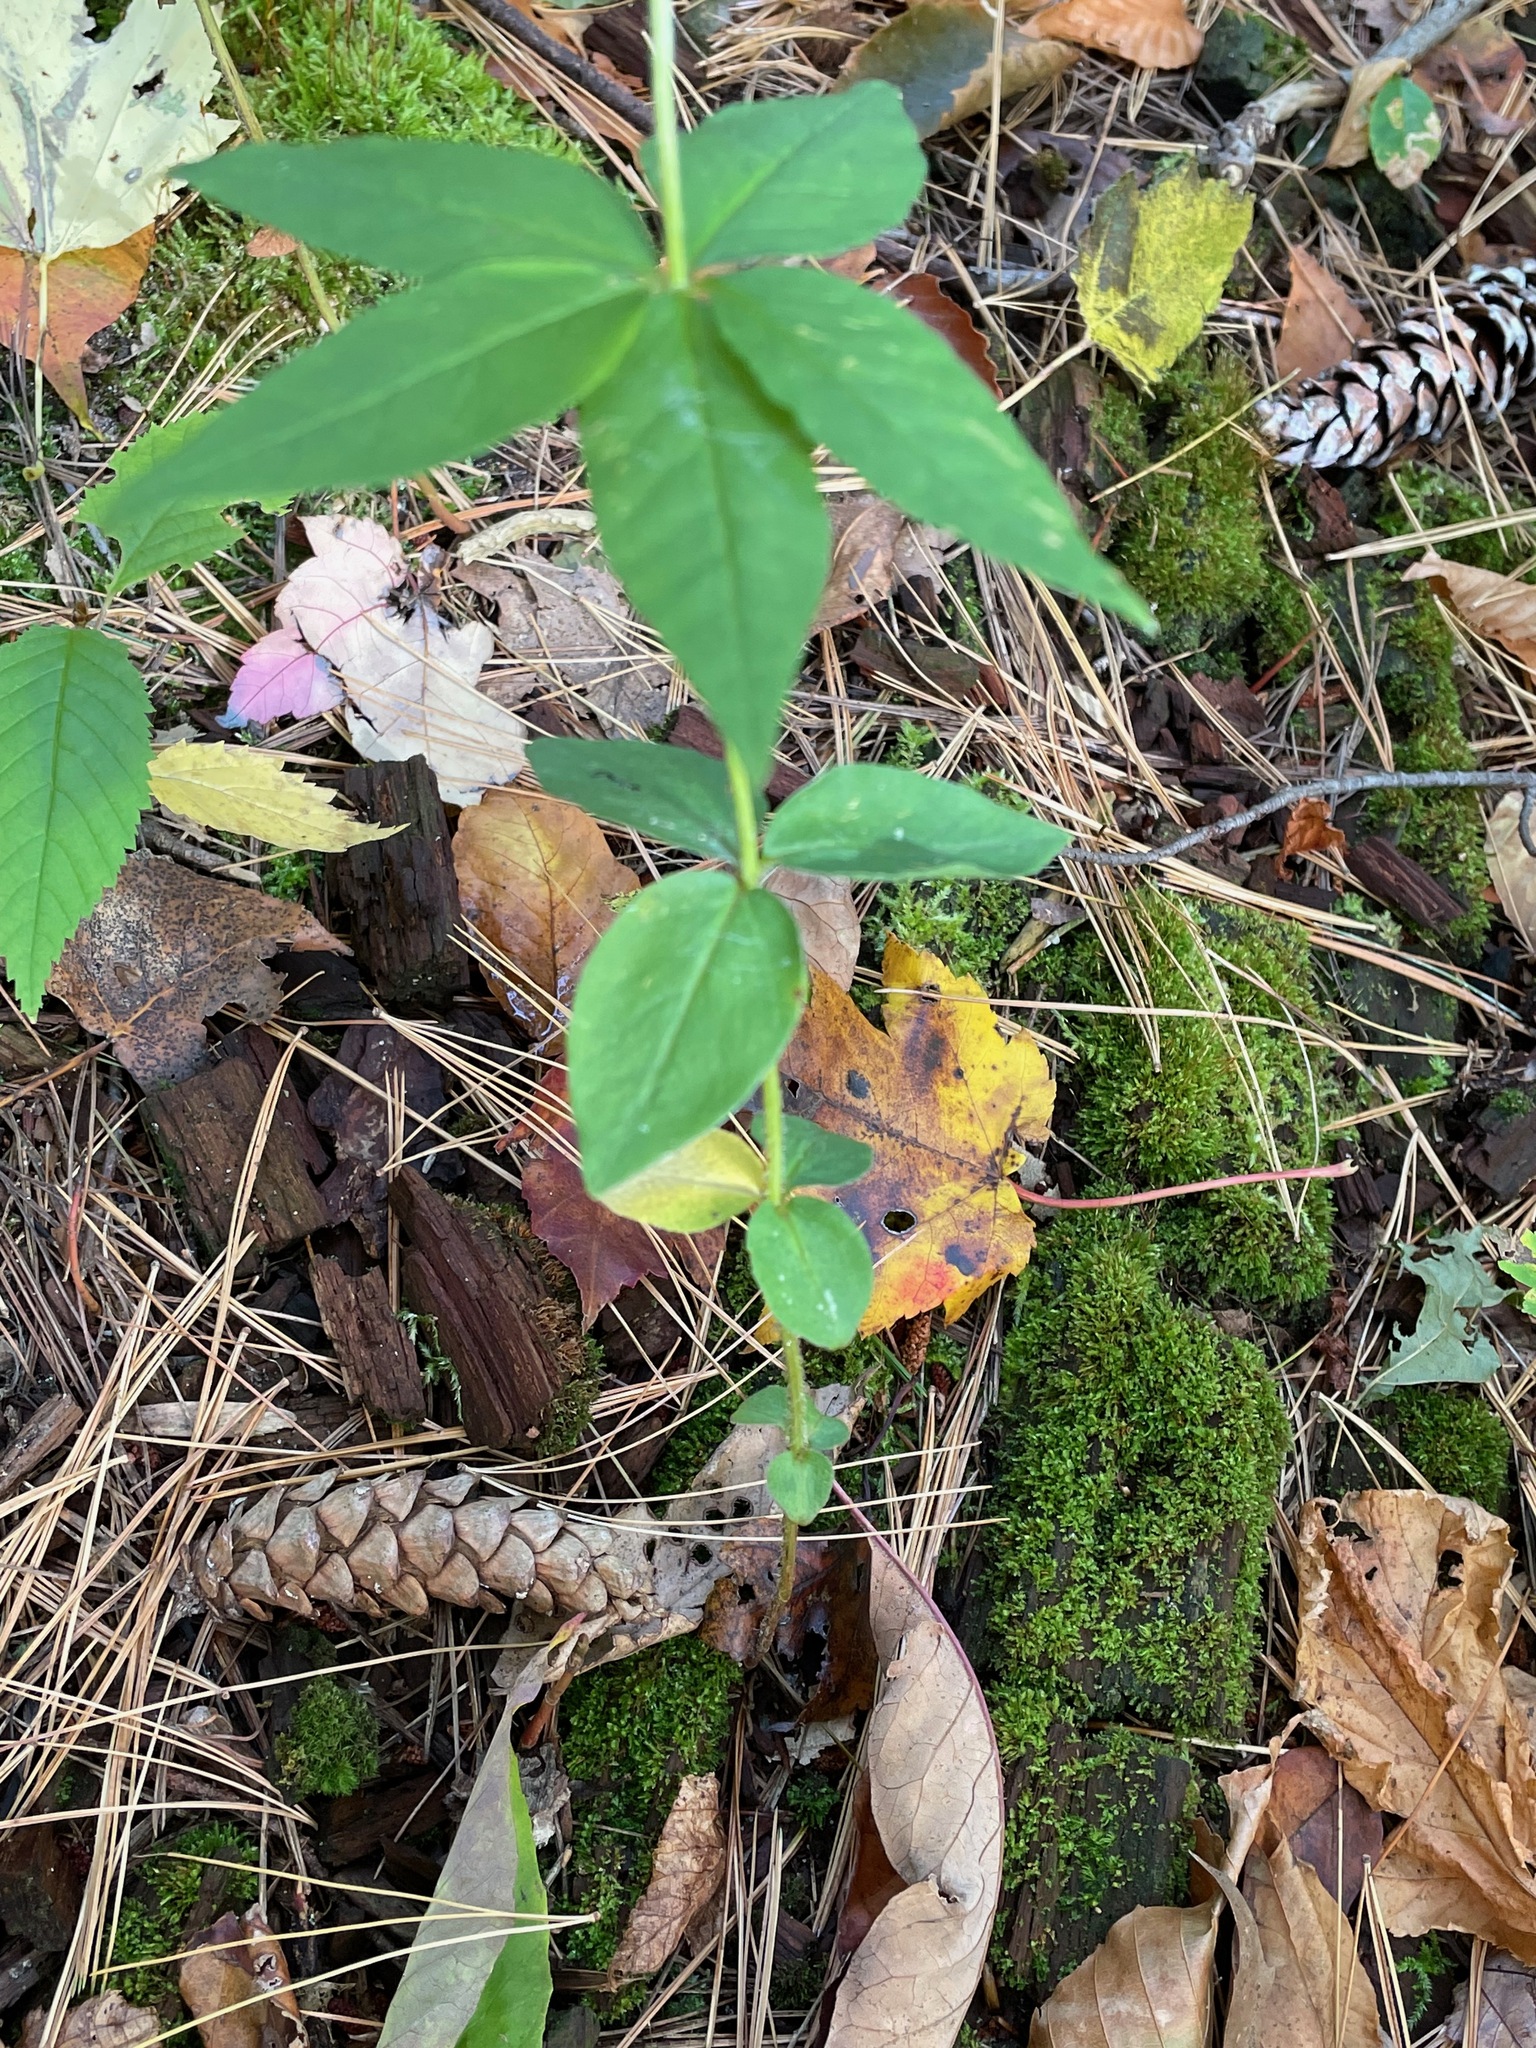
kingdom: Plantae
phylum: Tracheophyta
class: Magnoliopsida
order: Ericales
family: Primulaceae
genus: Lysimachia
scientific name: Lysimachia quadrifolia
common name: Whorled loosestrife
